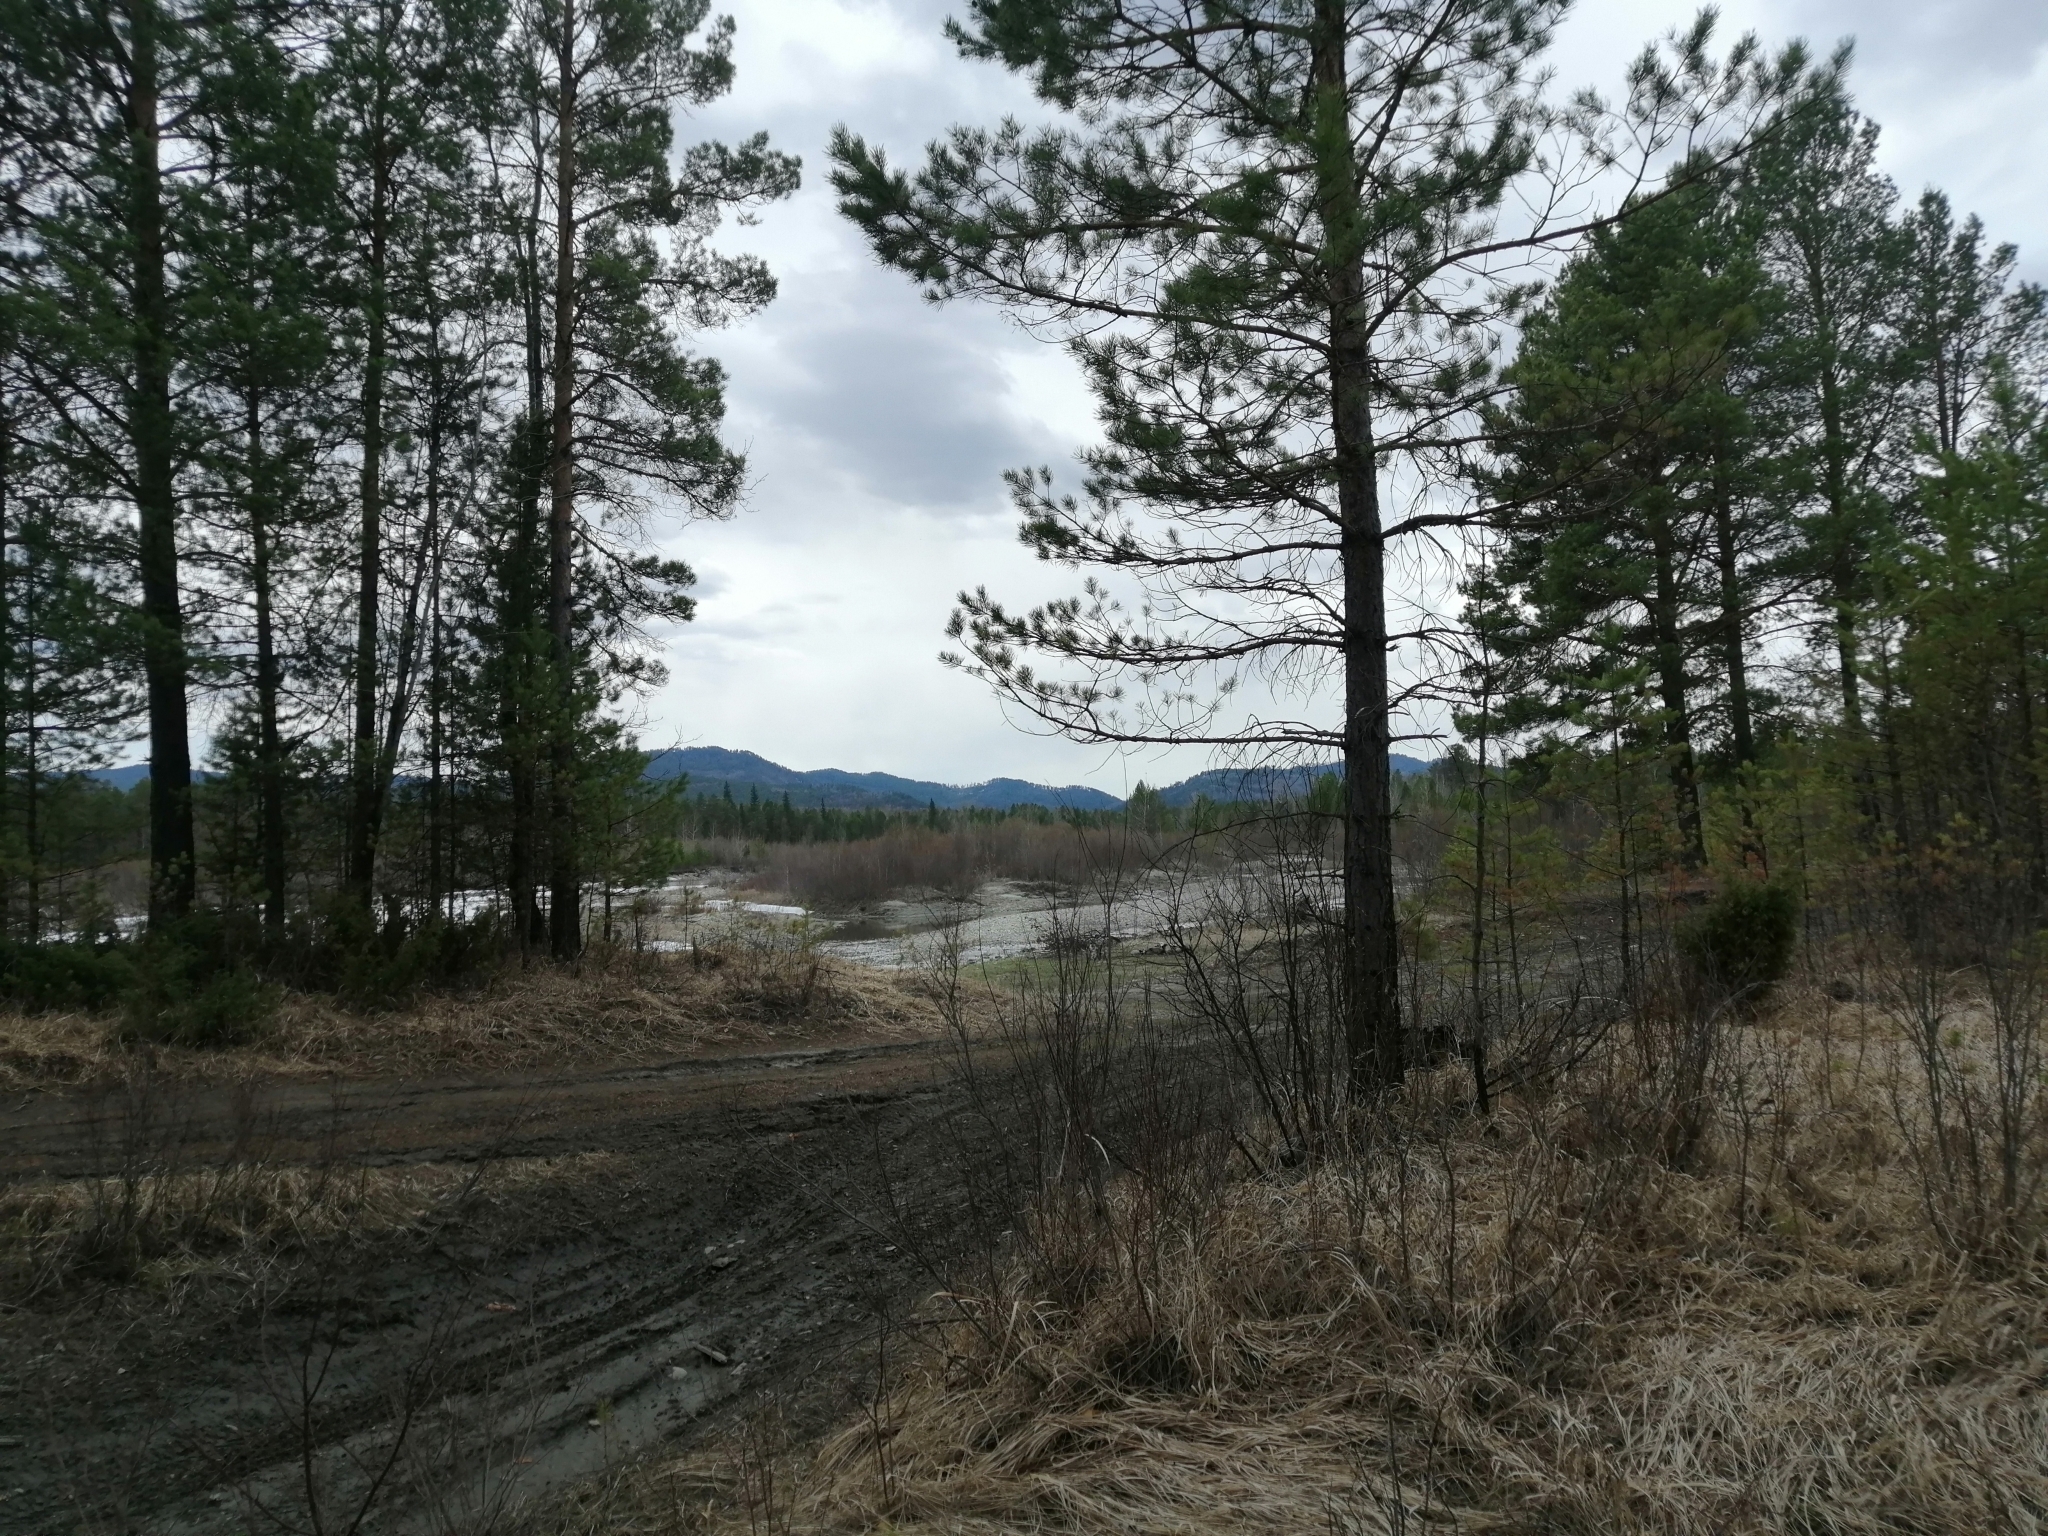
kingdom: Plantae
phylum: Tracheophyta
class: Pinopsida
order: Pinales
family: Pinaceae
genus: Pinus
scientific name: Pinus sylvestris
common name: Scots pine
